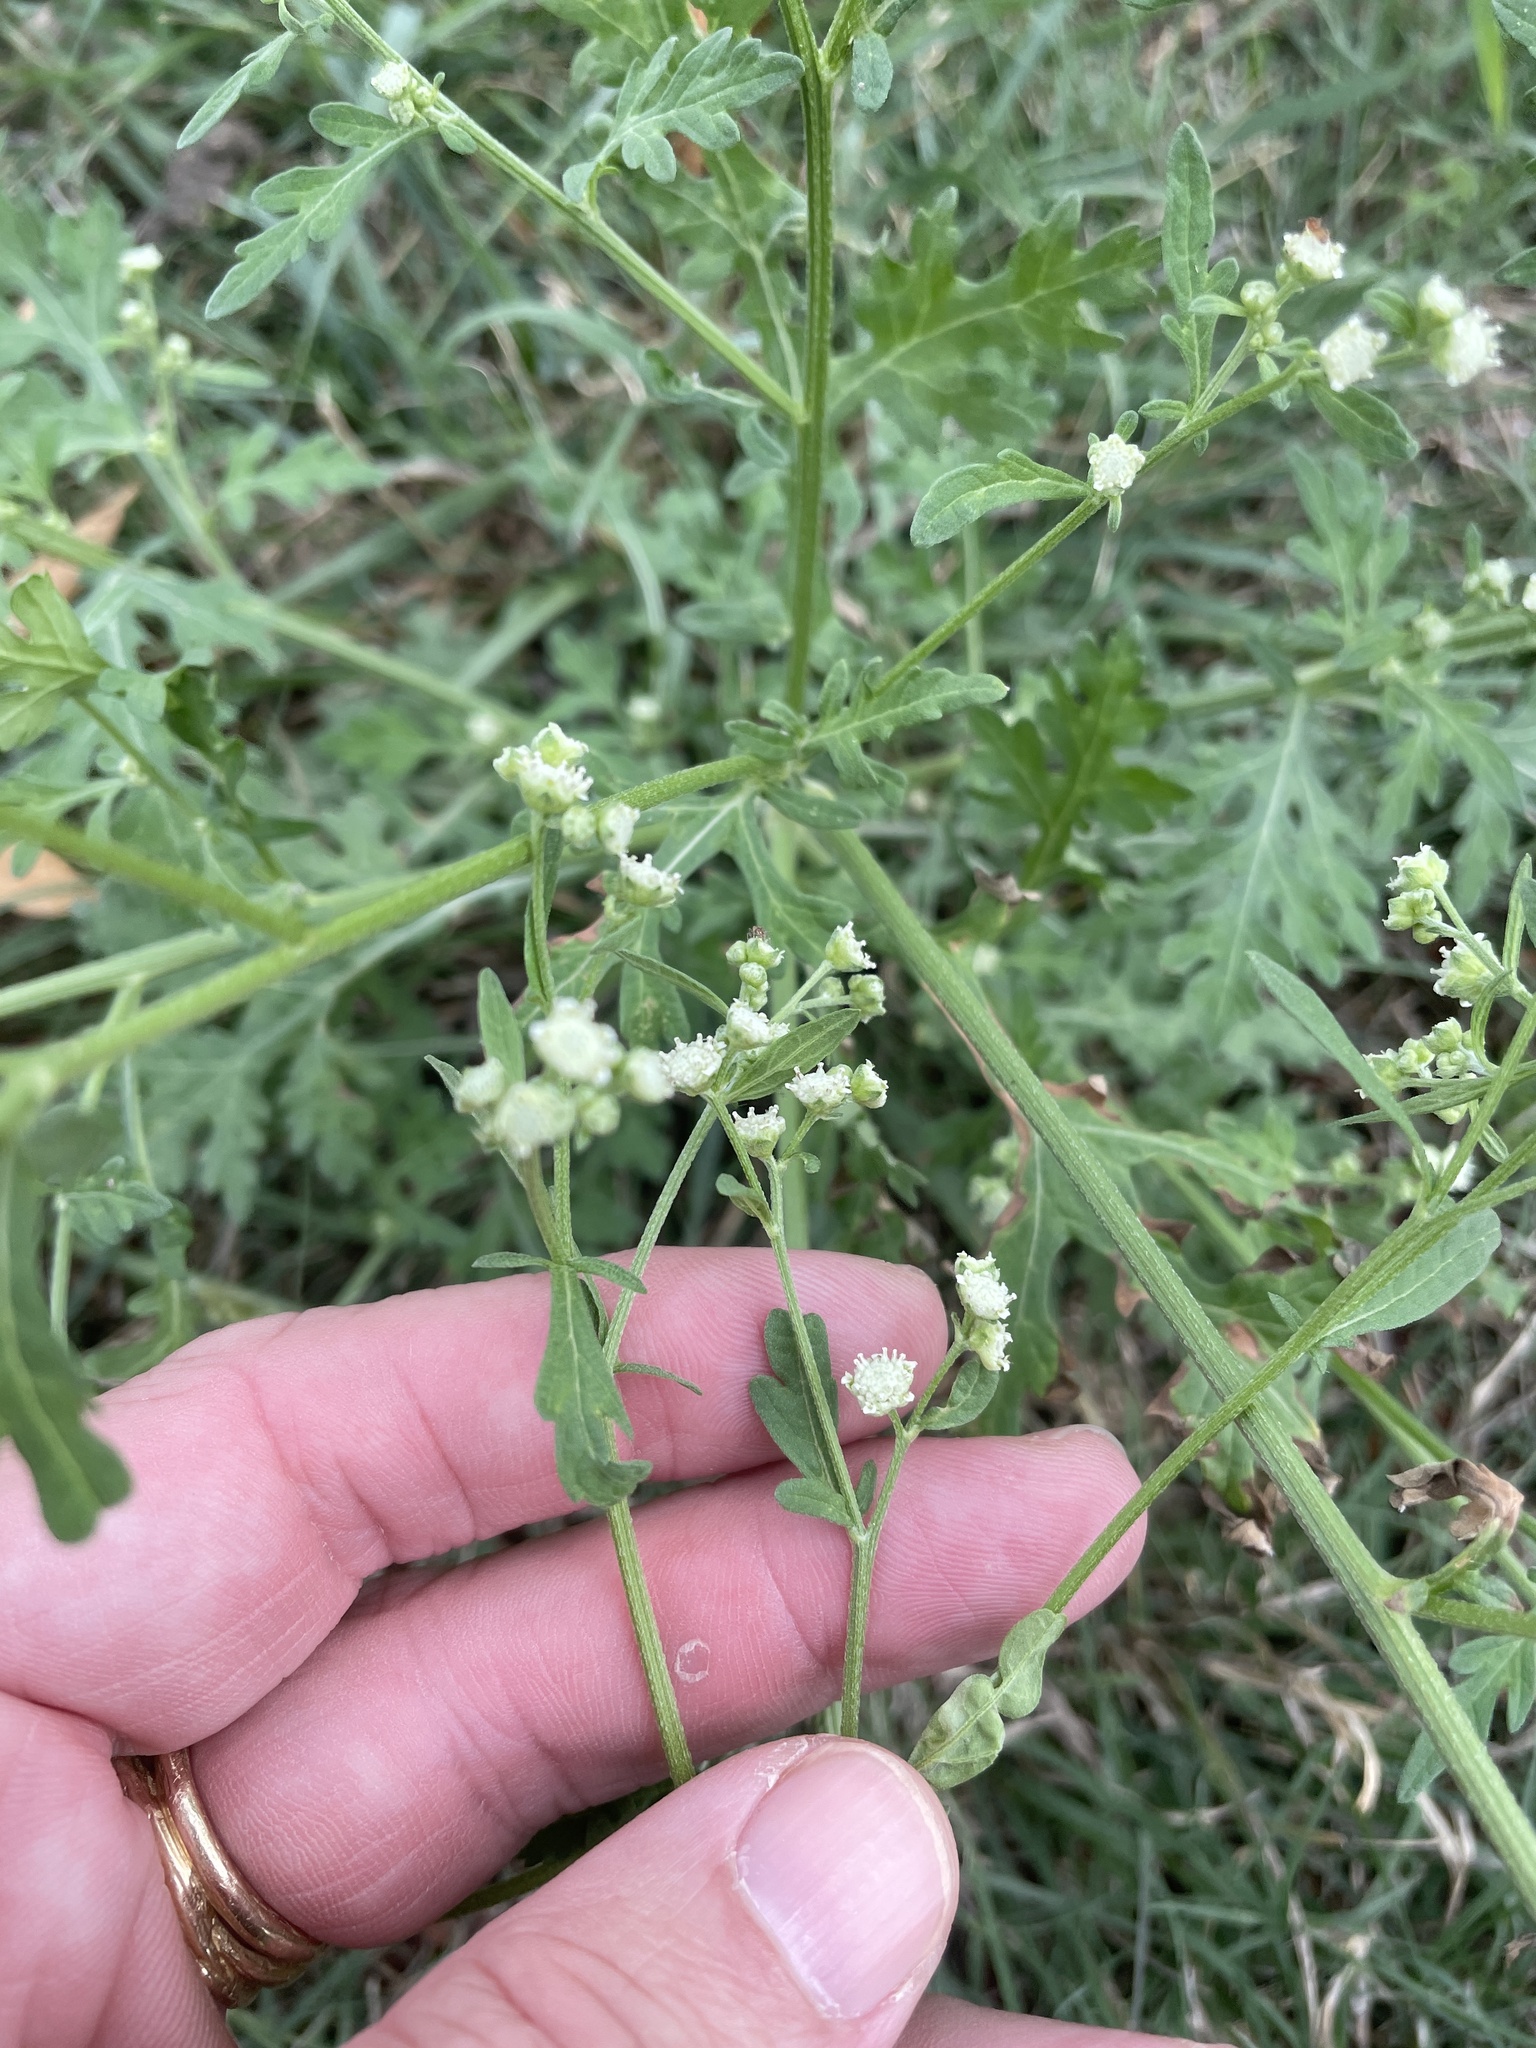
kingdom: Plantae
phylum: Tracheophyta
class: Magnoliopsida
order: Asterales
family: Asteraceae
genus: Parthenium
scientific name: Parthenium hysterophorus
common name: Santa maria feverfew
